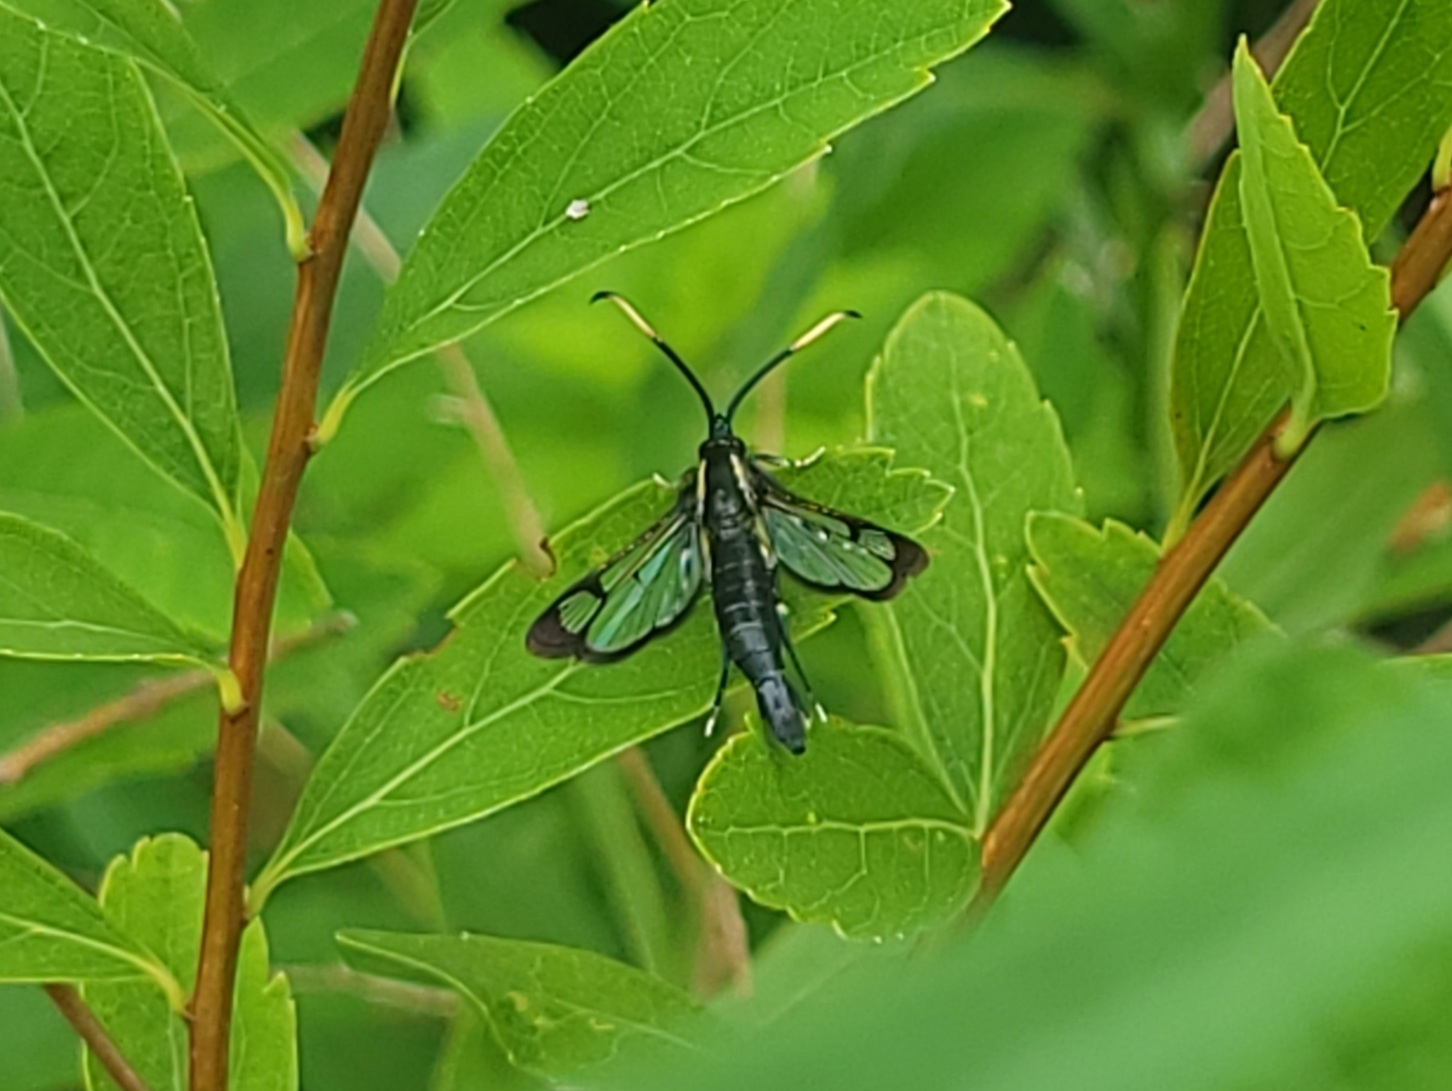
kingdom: Animalia
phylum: Arthropoda
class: Insecta
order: Lepidoptera
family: Sesiidae
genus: Synanthedon
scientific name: Synanthedon proxima
